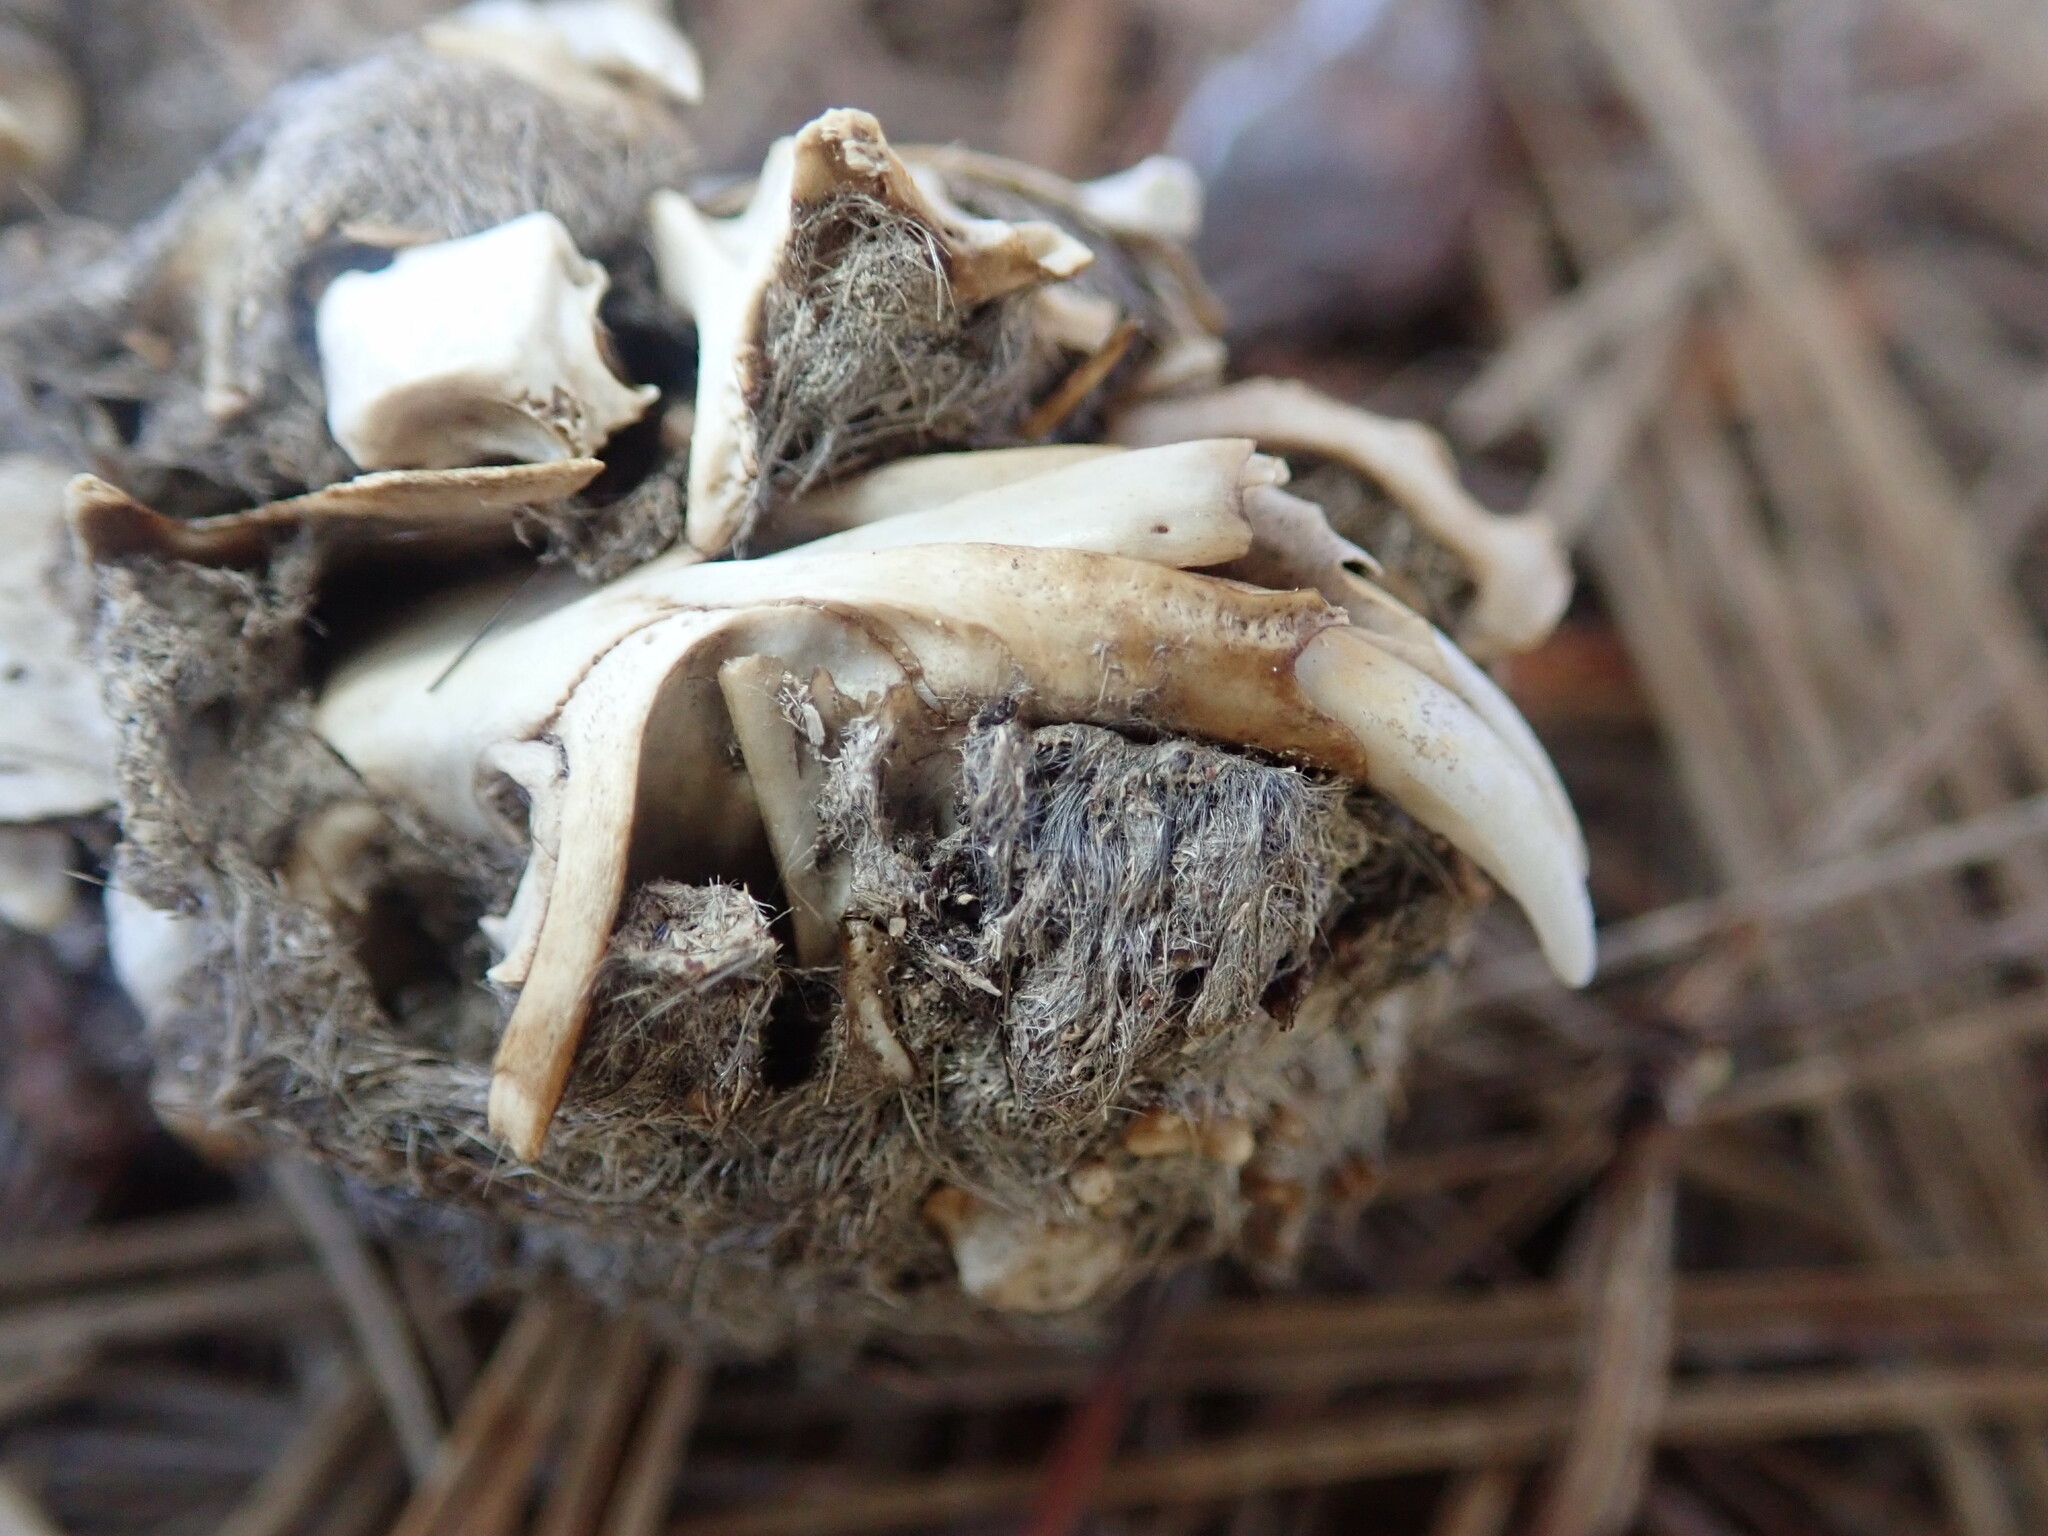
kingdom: Animalia
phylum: Chordata
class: Mammalia
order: Rodentia
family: Geomyidae
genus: Thomomys
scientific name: Thomomys bottae
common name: Botta's pocket gopher
